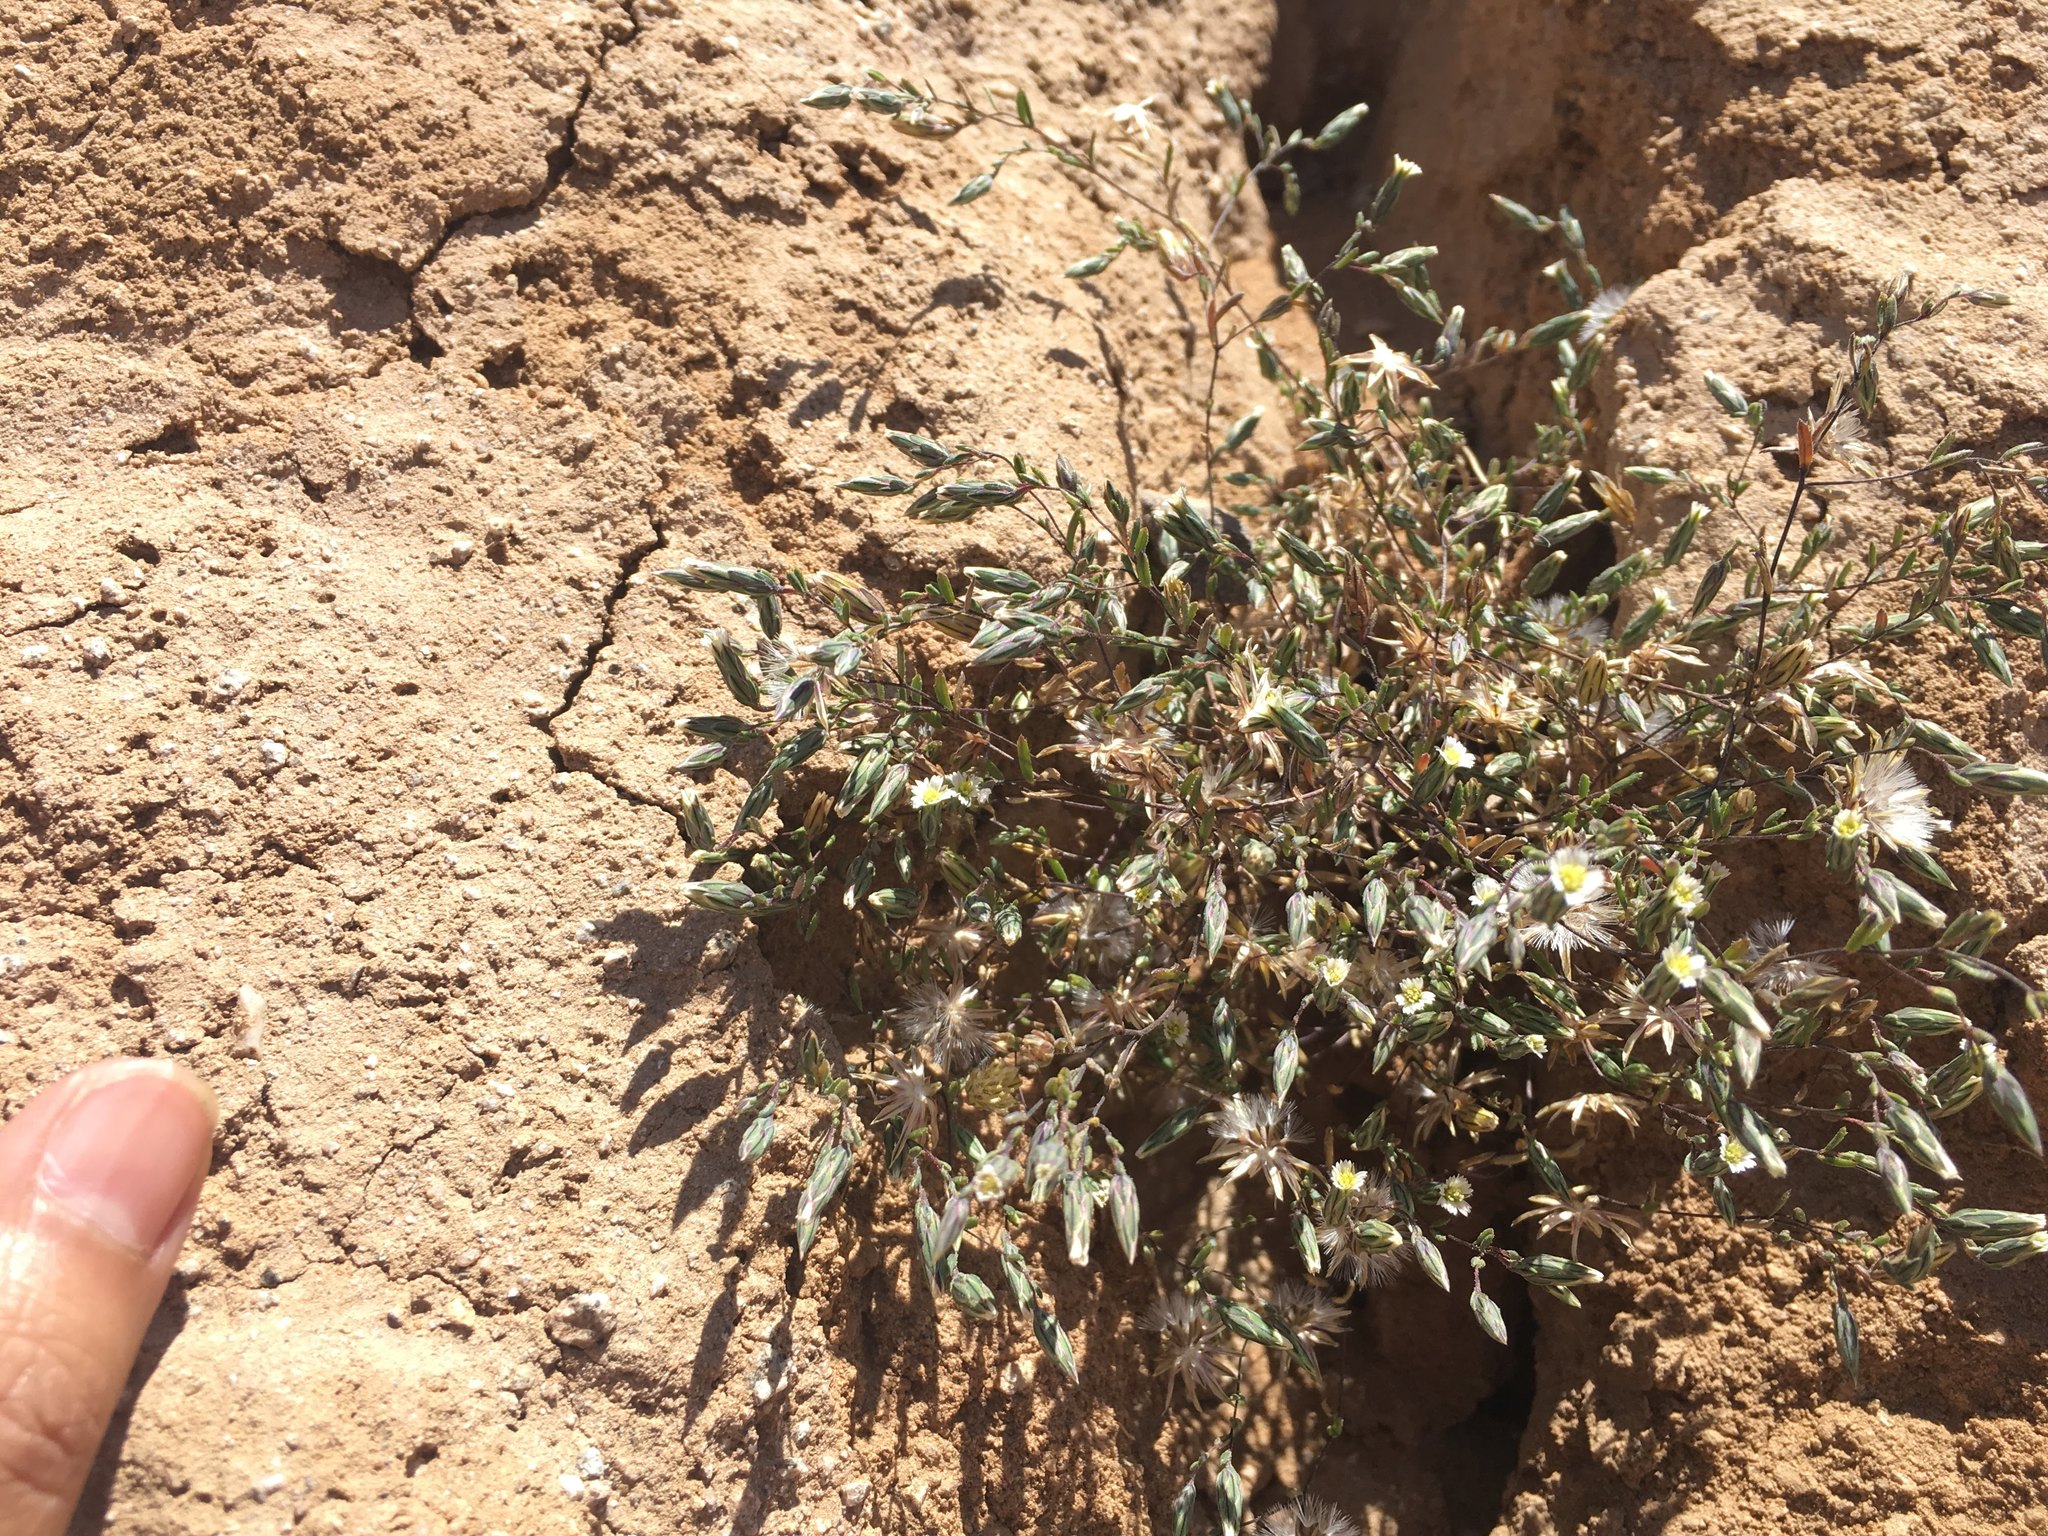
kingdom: Plantae
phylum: Tracheophyta
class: Magnoliopsida
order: Asterales
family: Asteraceae
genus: Chaetanthera
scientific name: Chaetanthera depauperata
